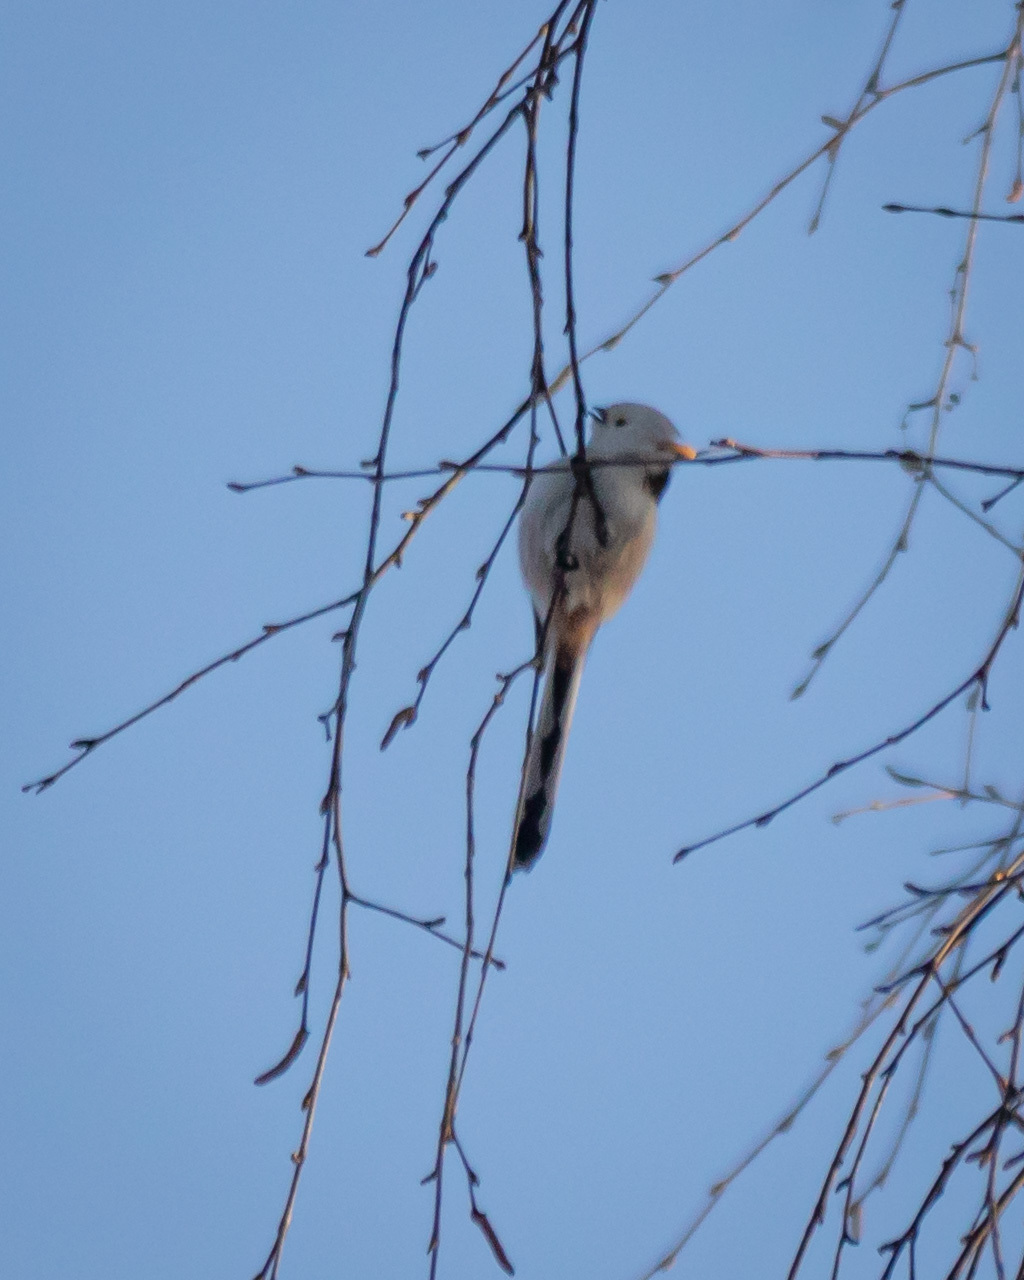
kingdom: Animalia
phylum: Chordata
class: Aves
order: Passeriformes
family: Aegithalidae
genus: Aegithalos
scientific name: Aegithalos caudatus
